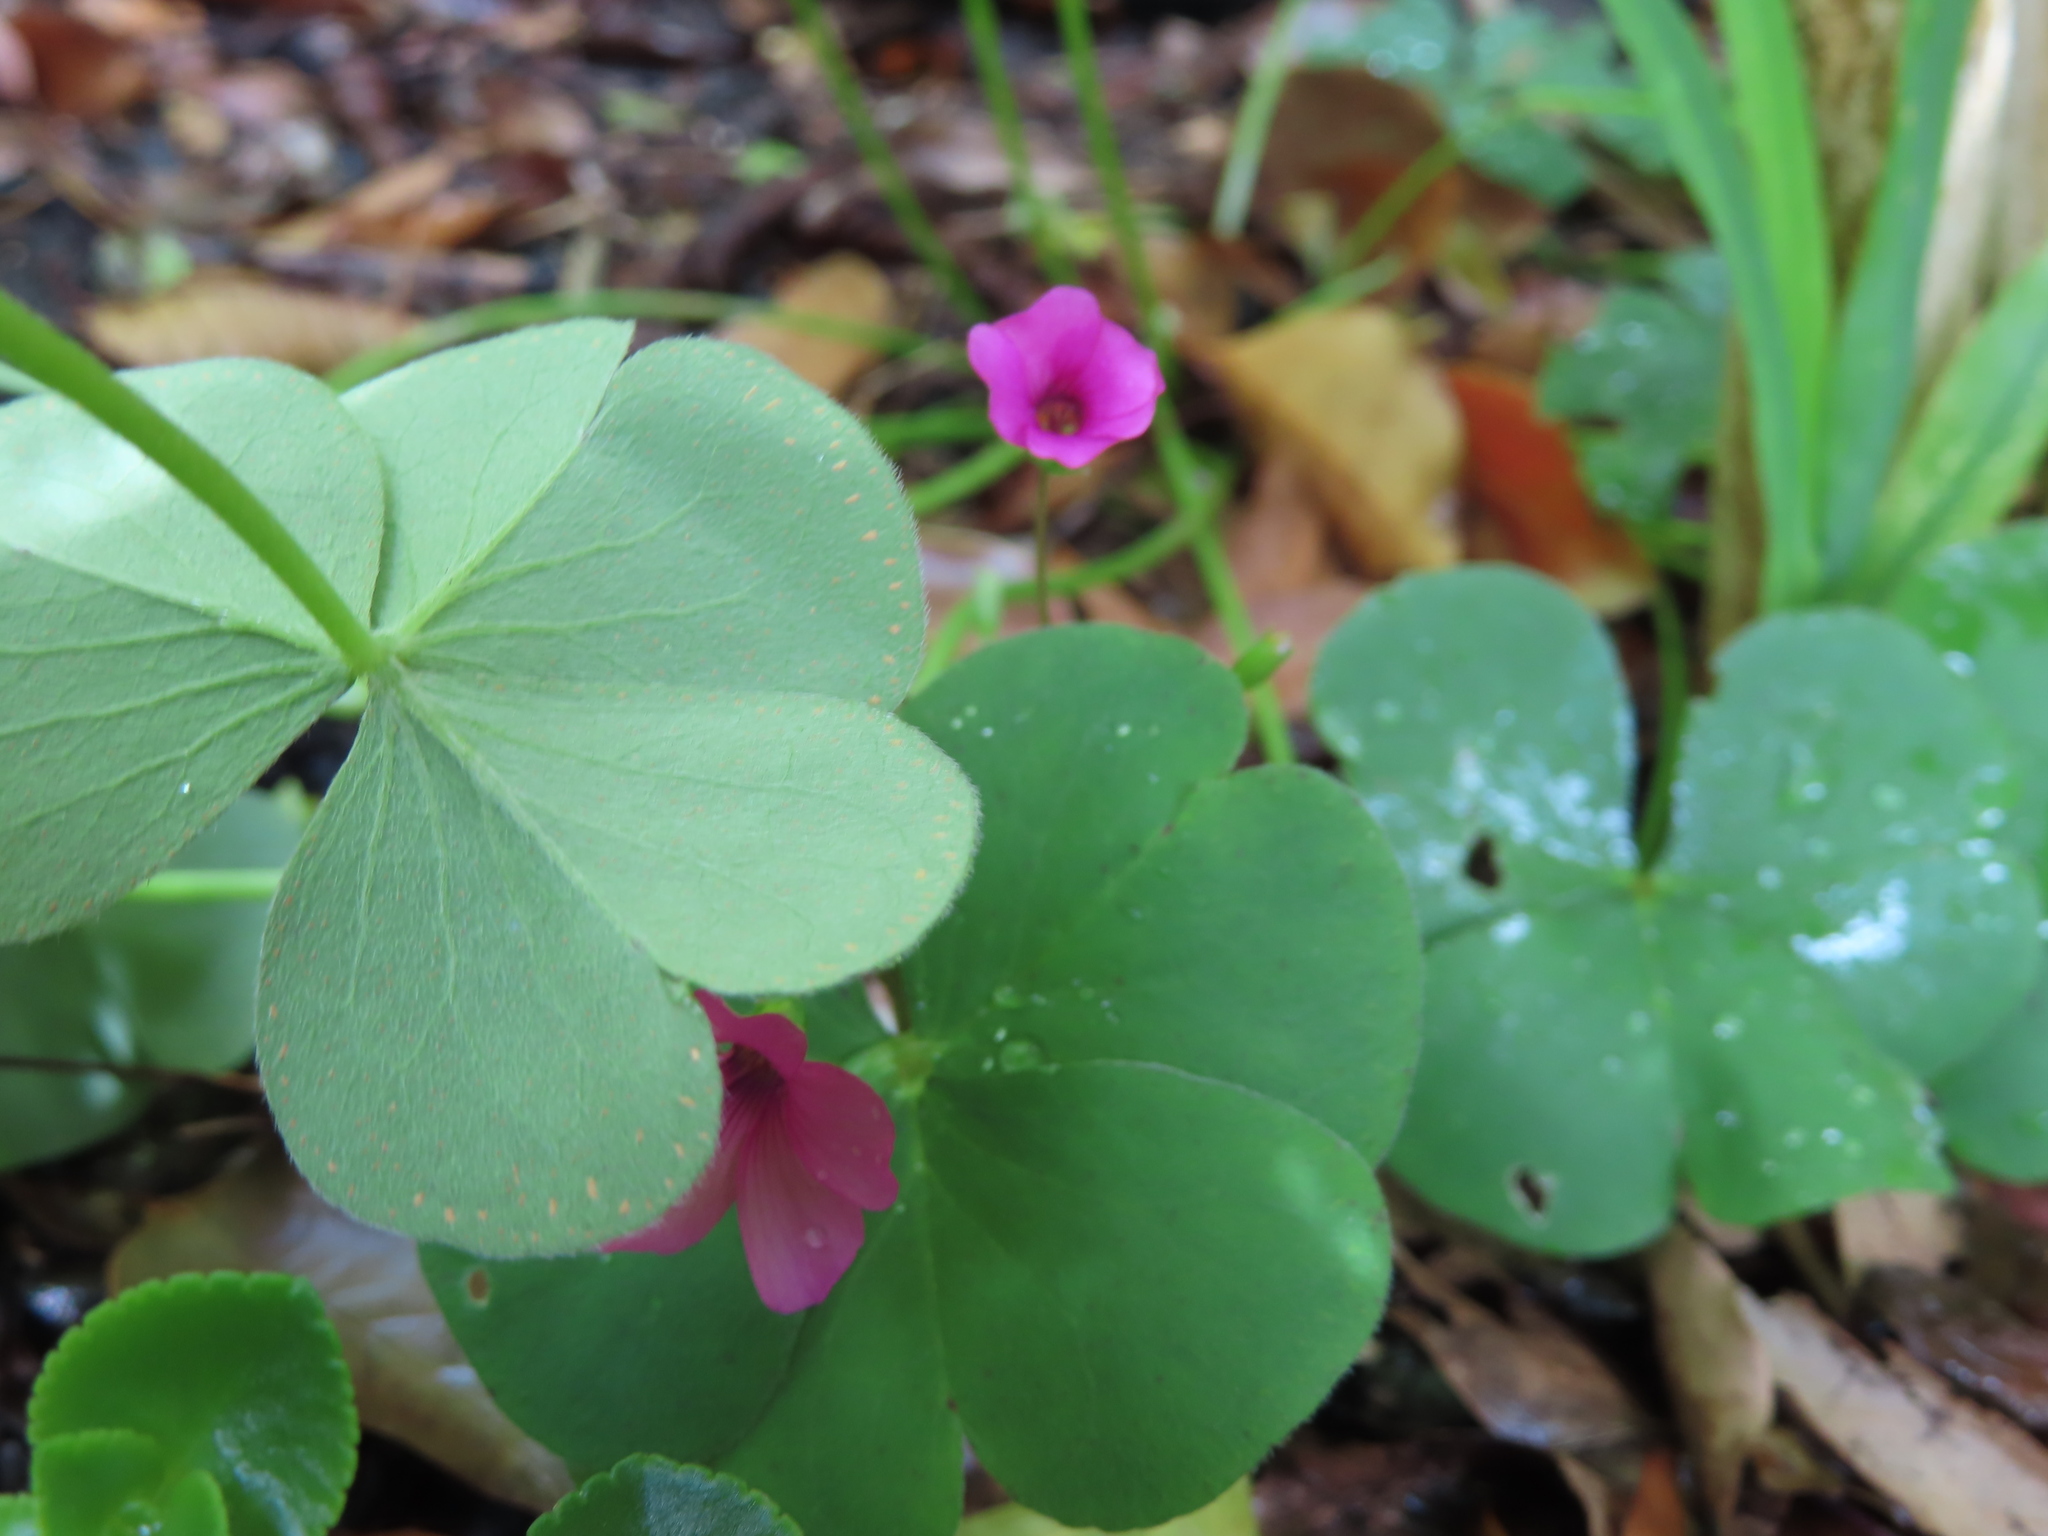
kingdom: Plantae
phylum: Tracheophyta
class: Magnoliopsida
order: Oxalidales
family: Oxalidaceae
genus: Oxalis
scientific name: Oxalis articulata
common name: Pink-sorrel
